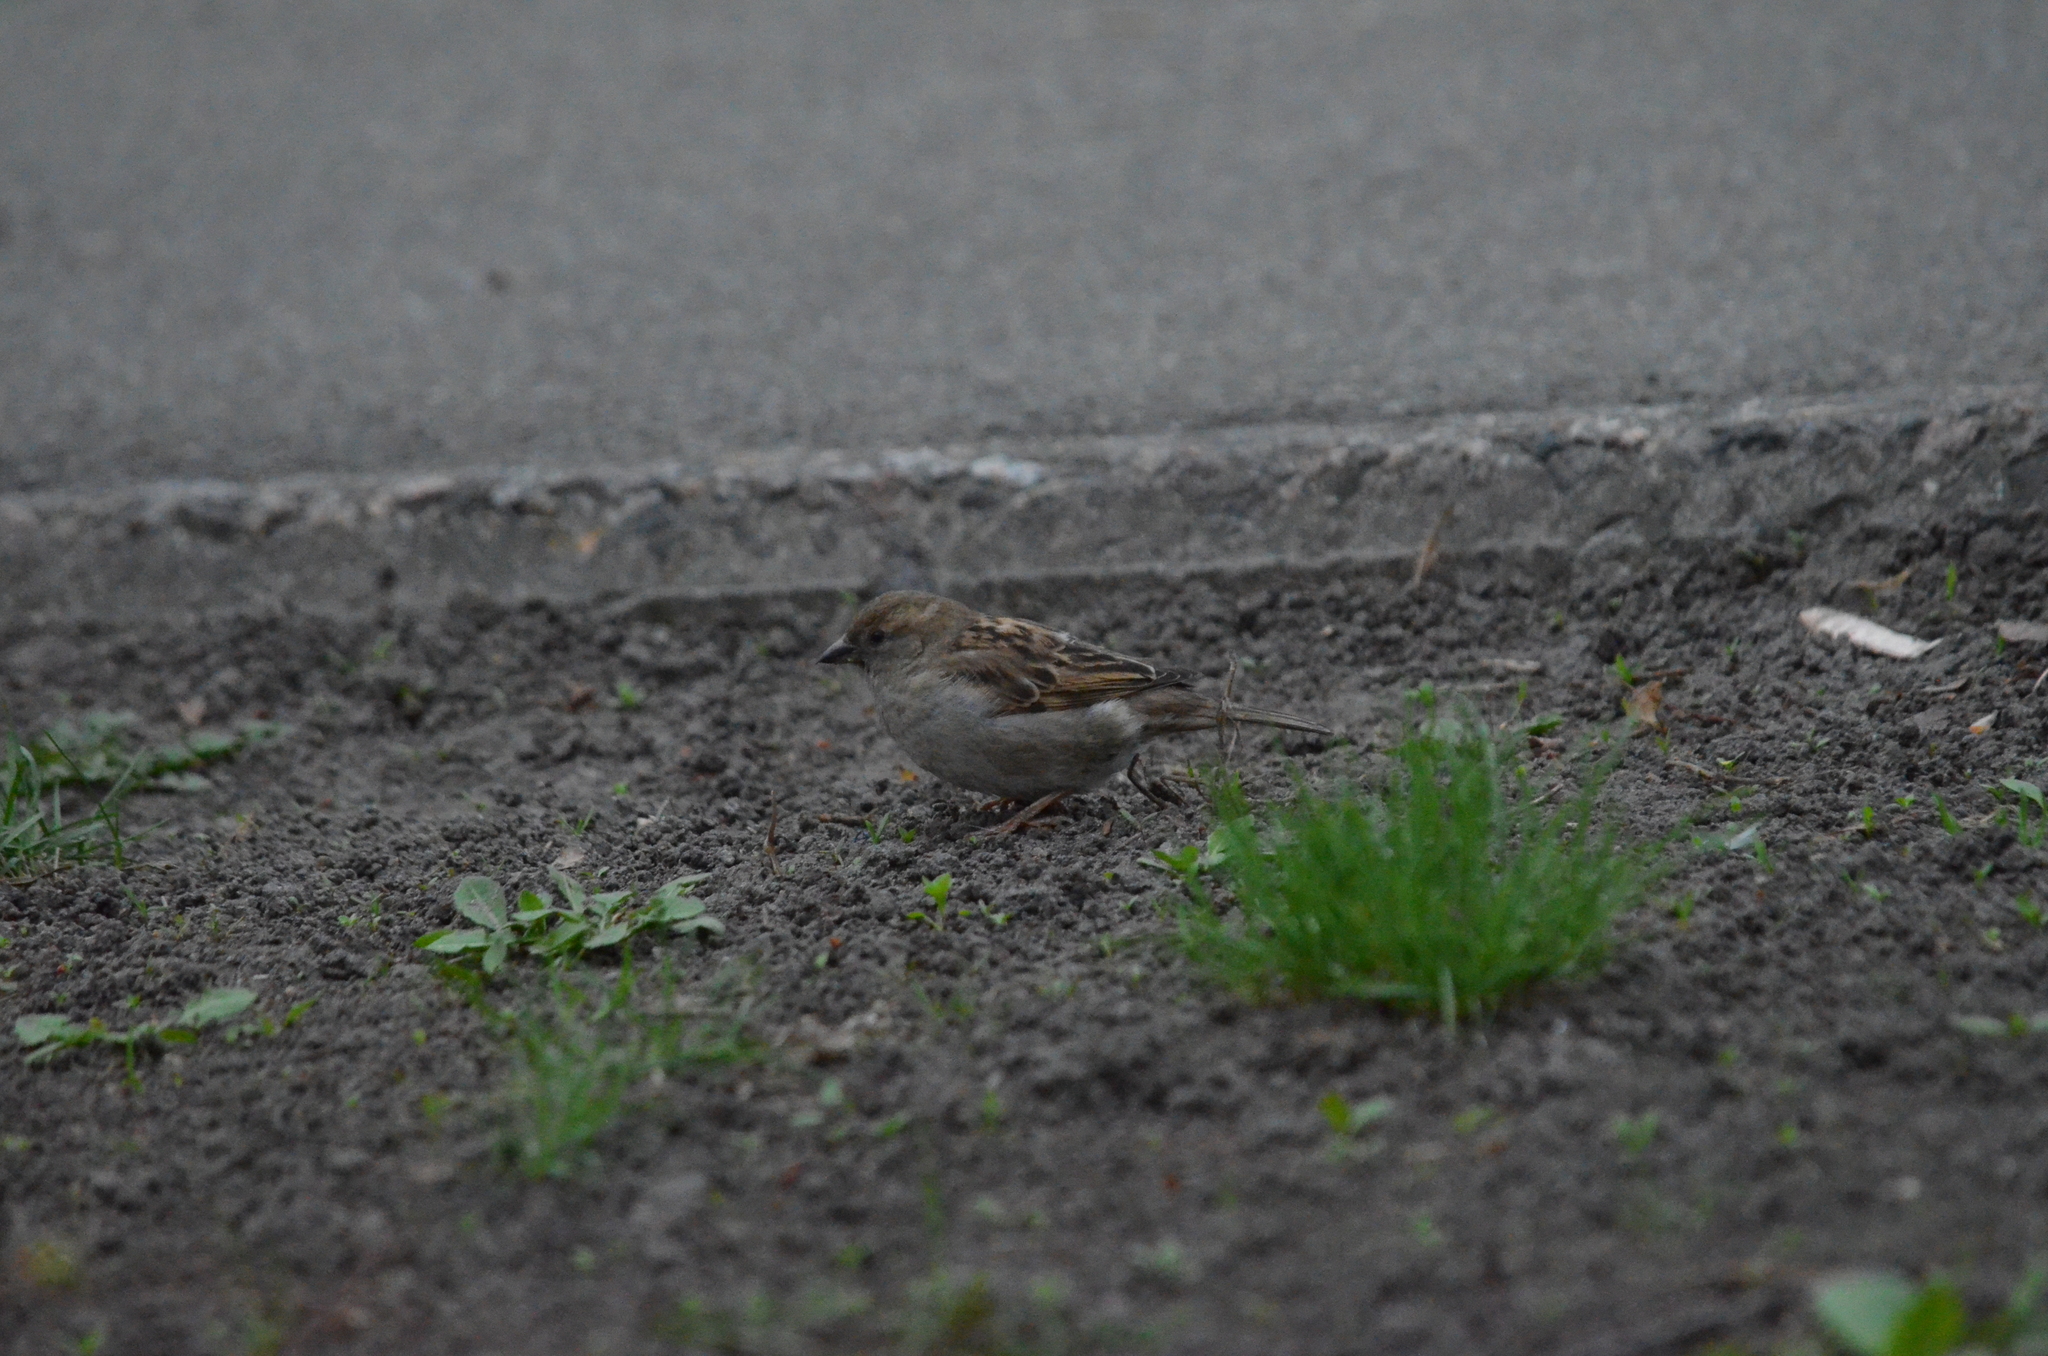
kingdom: Animalia
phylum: Chordata
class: Aves
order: Passeriformes
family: Passeridae
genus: Passer
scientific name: Passer domesticus
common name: House sparrow
